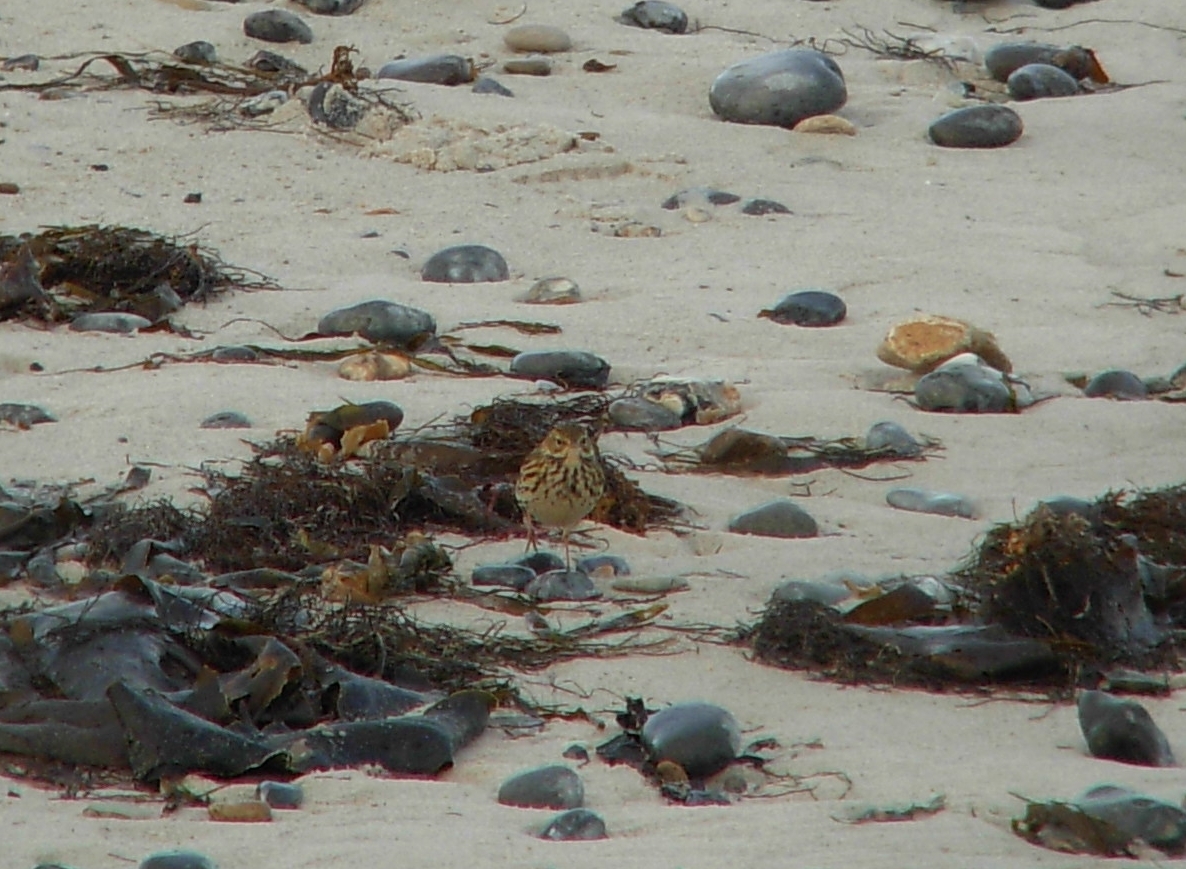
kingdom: Animalia
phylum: Chordata
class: Aves
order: Passeriformes
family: Motacillidae
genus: Anthus
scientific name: Anthus pratensis
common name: Meadow pipit
